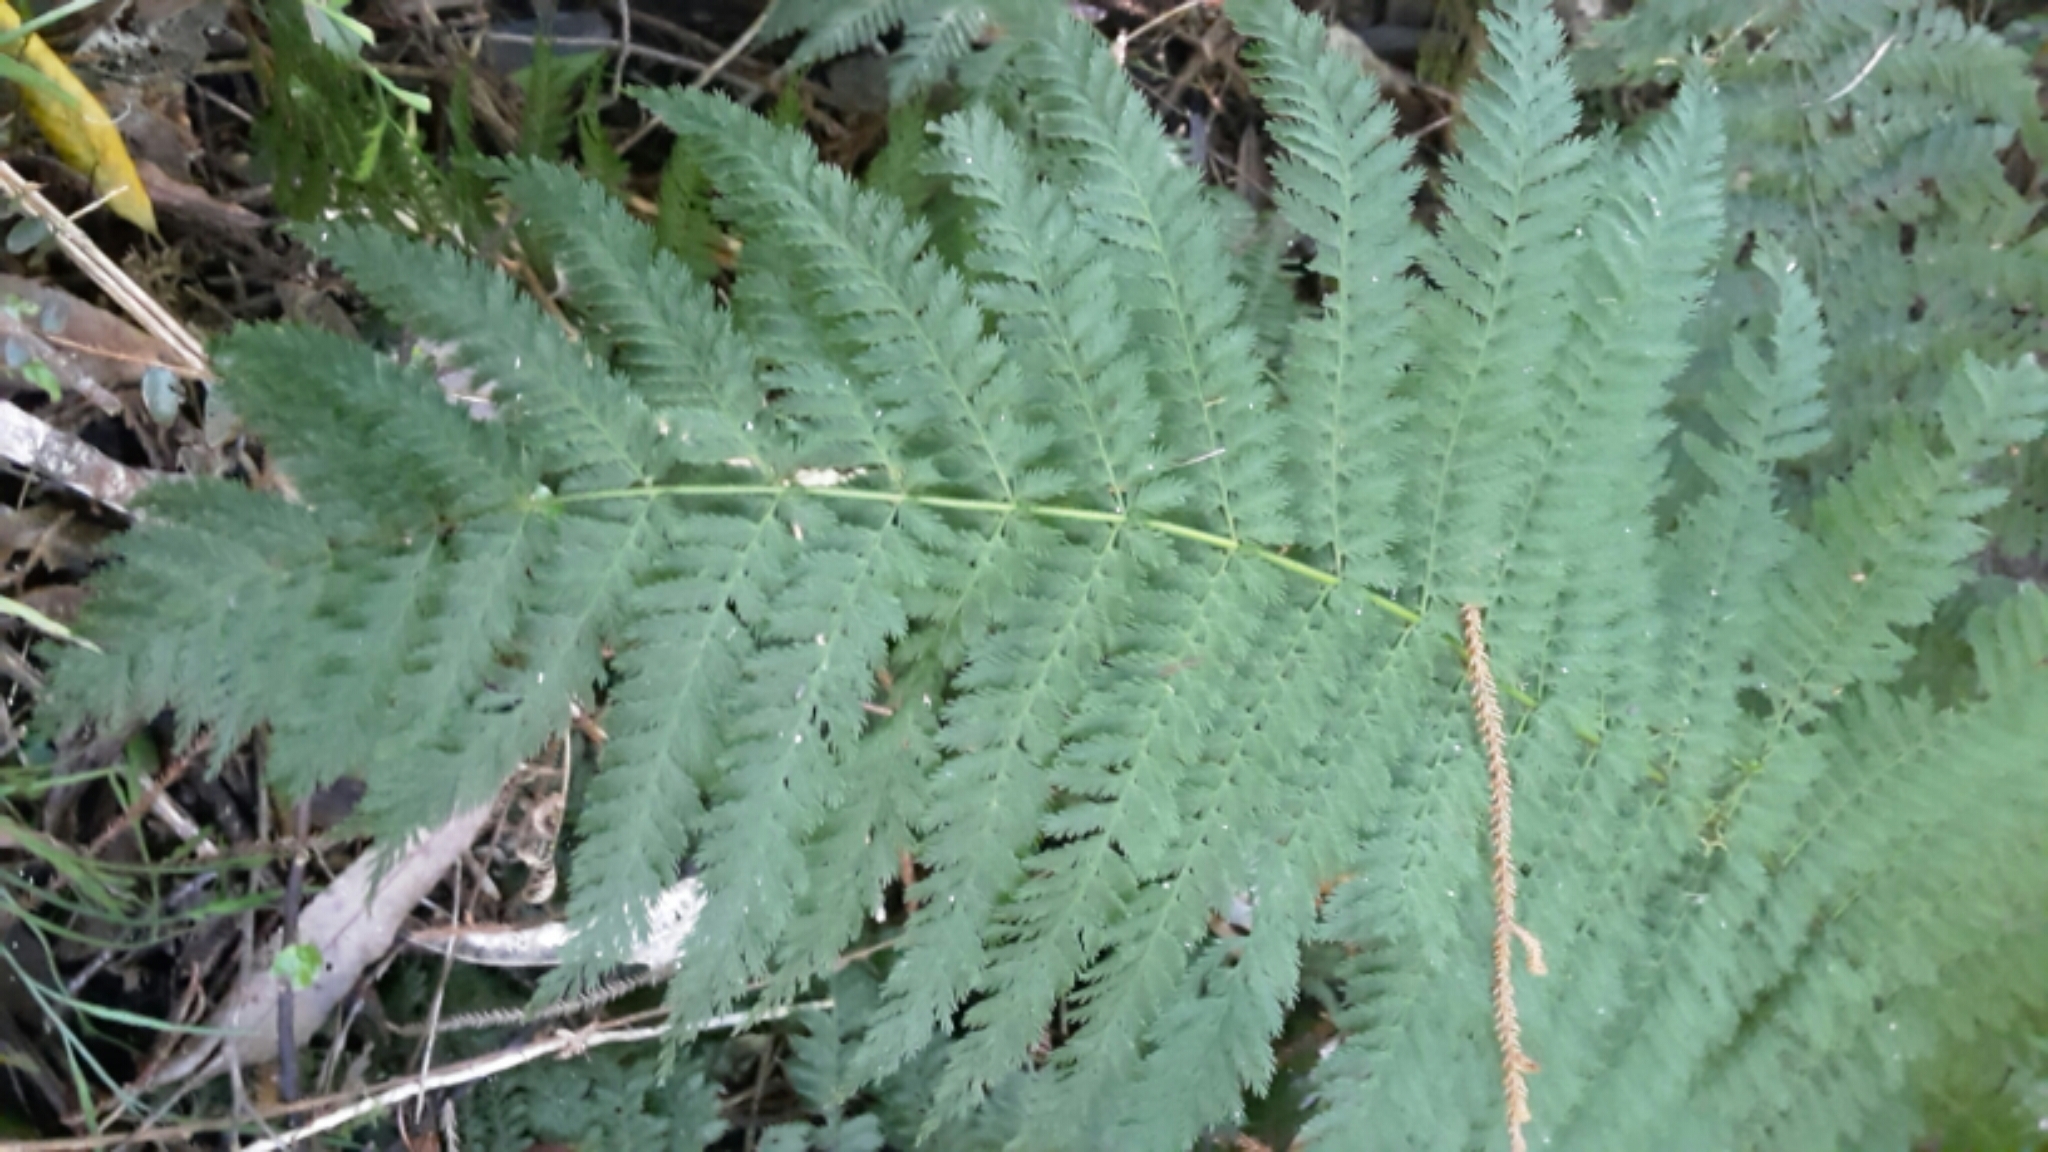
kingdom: Plantae
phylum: Tracheophyta
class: Polypodiopsida
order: Osmundales
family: Osmundaceae
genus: Leptopteris
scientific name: Leptopteris hymenophylloides
